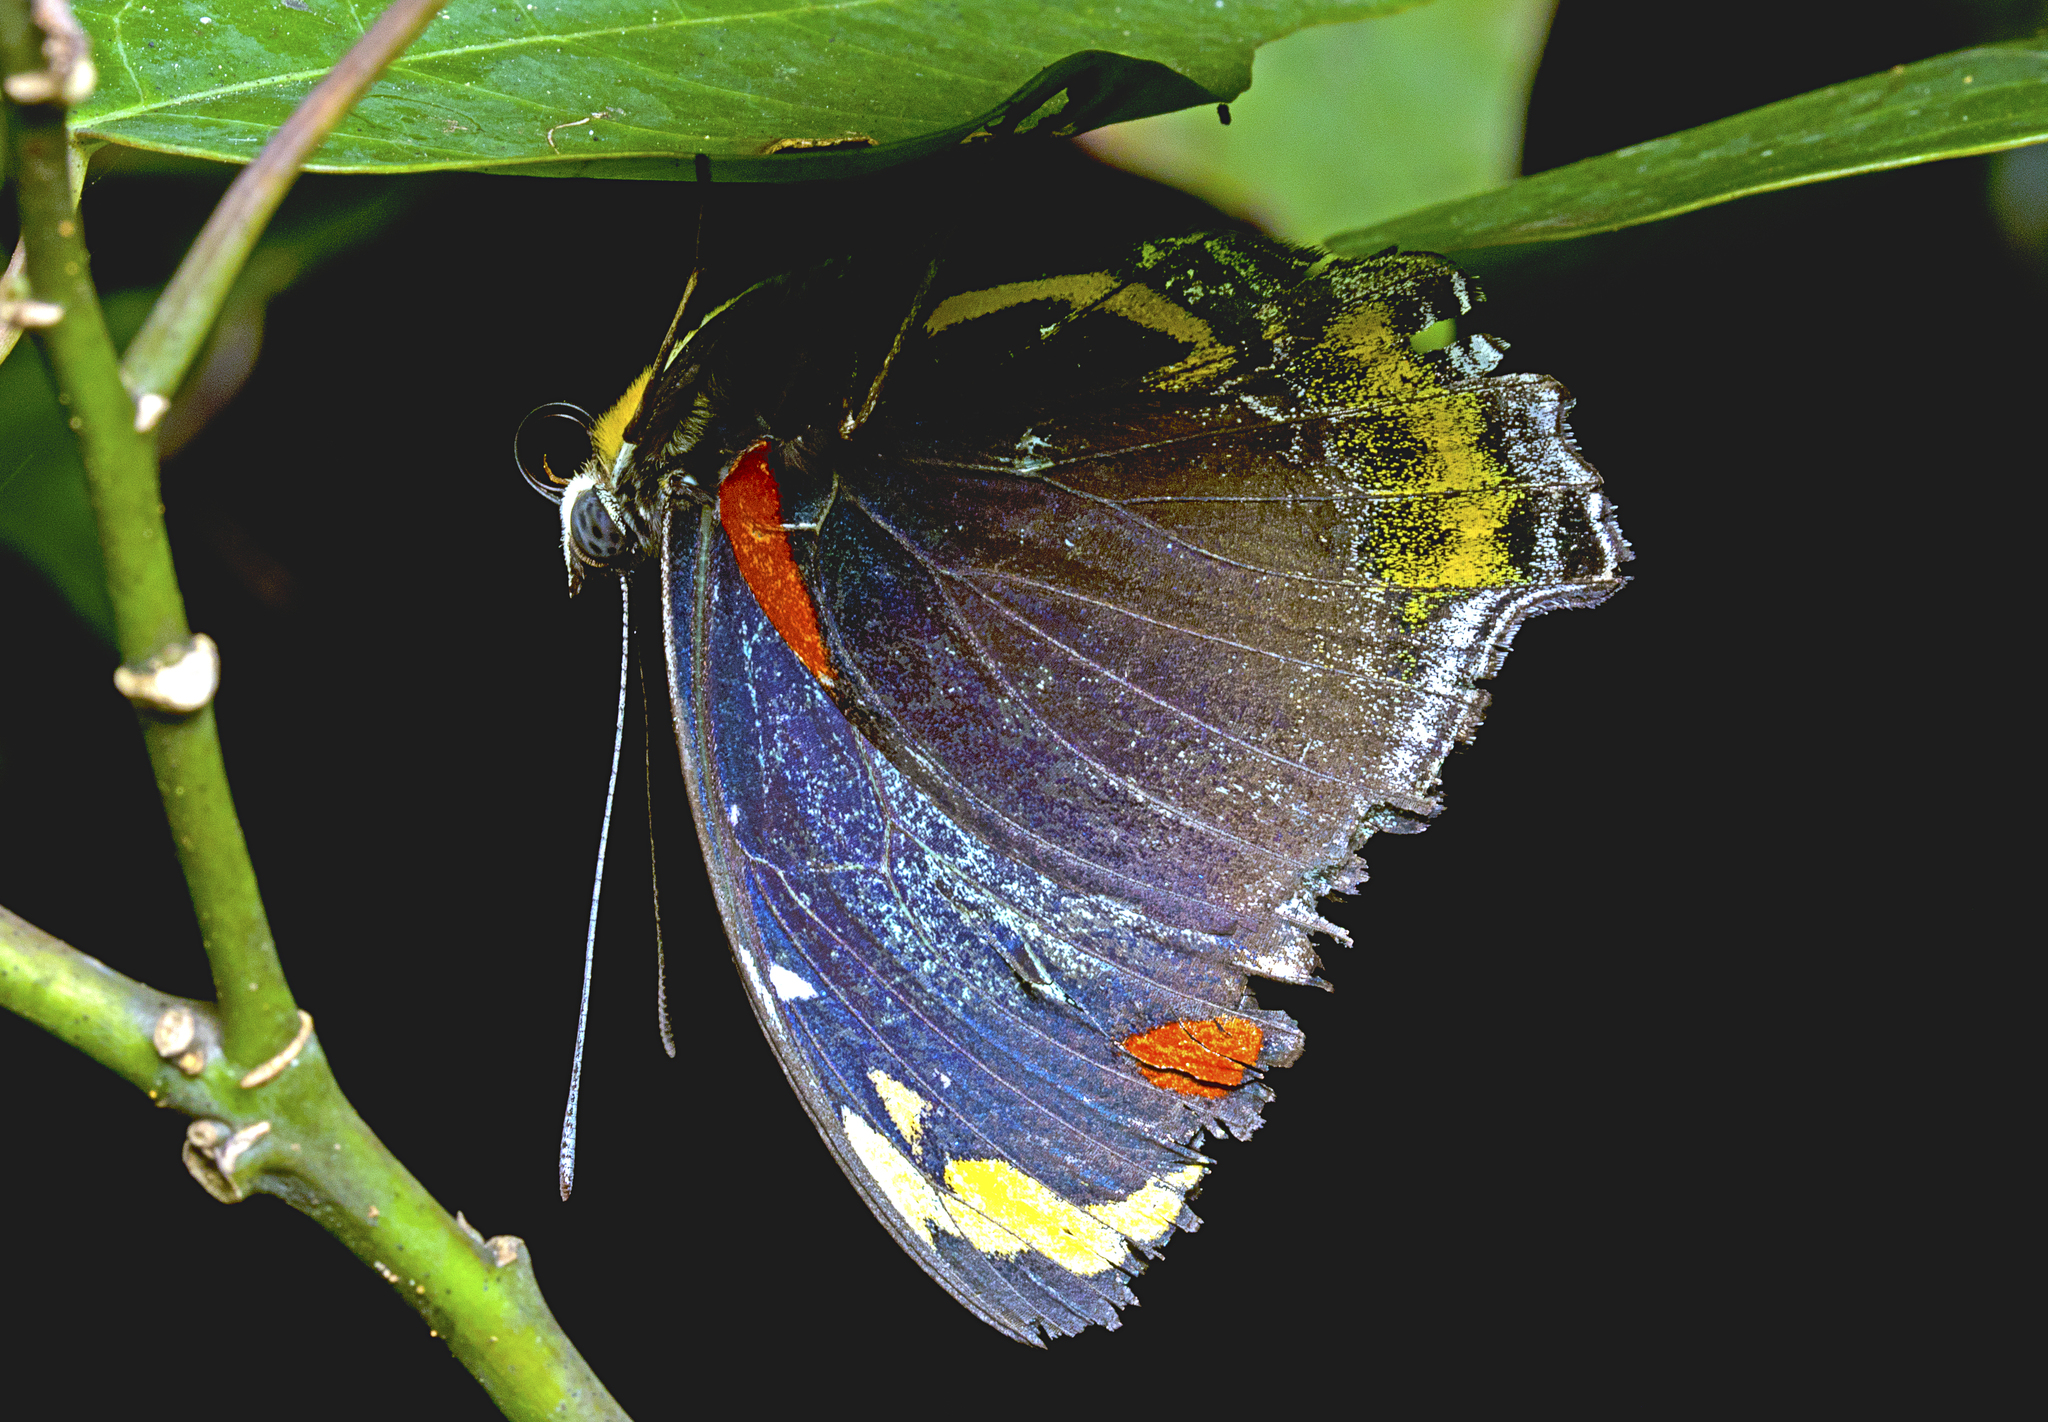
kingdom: Animalia
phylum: Arthropoda
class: Insecta
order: Lepidoptera
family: Nymphalidae
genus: Mynes
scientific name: Mynes geoffroyi
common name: Jezebel nymph
